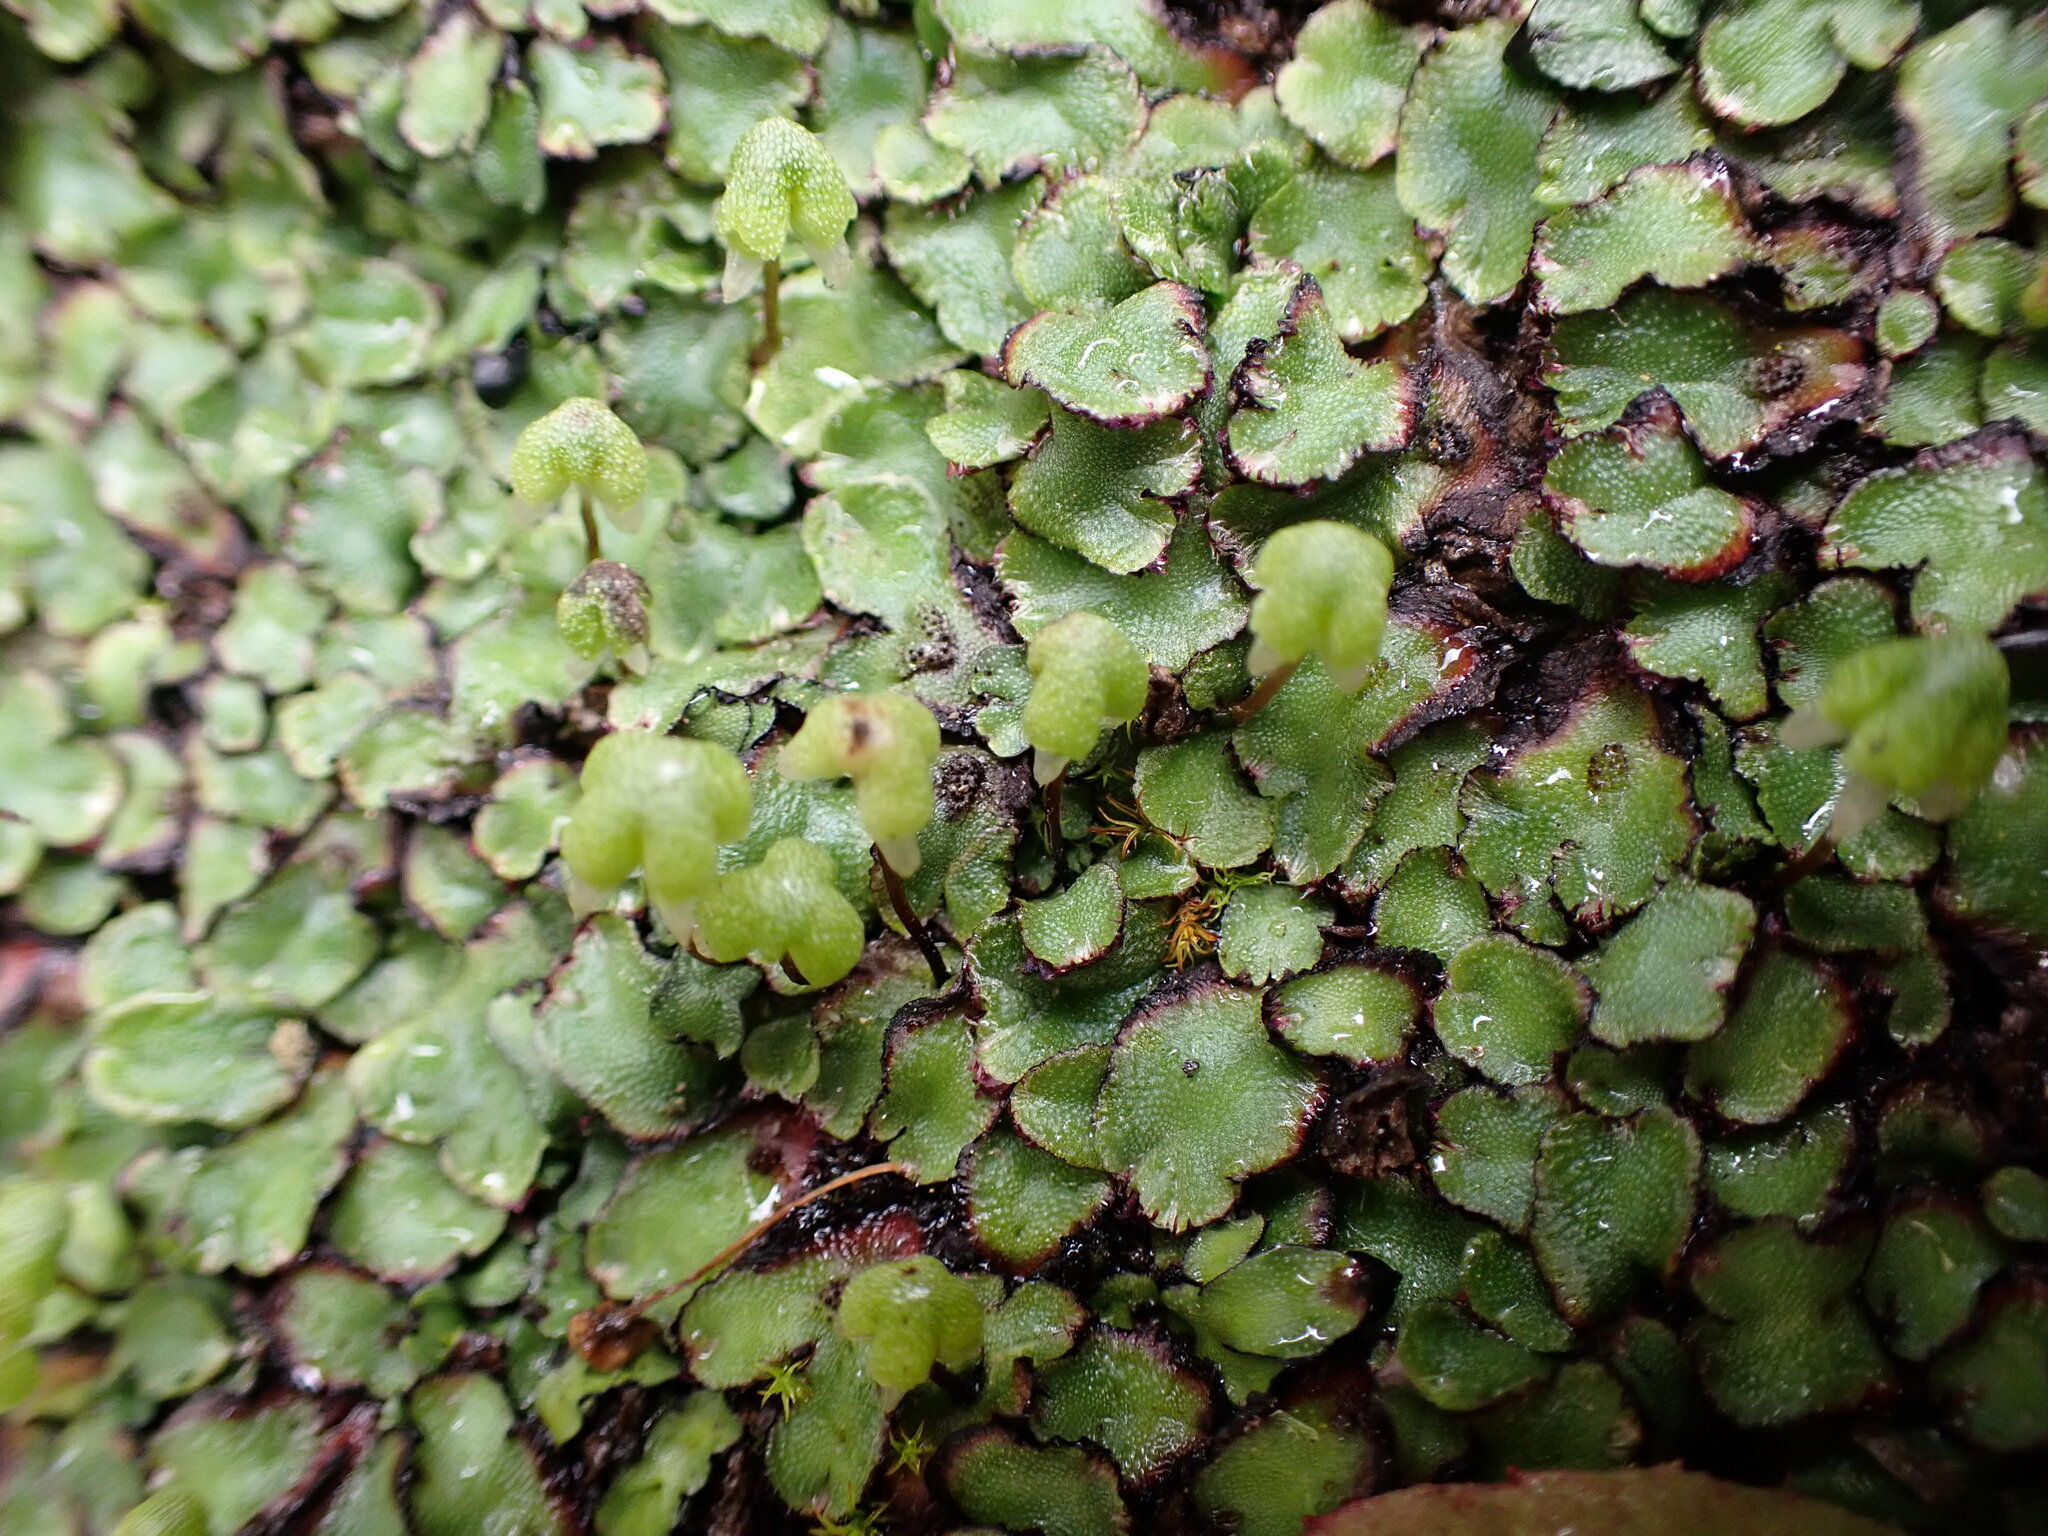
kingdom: Plantae
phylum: Marchantiophyta
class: Marchantiopsida
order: Marchantiales
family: Aytoniaceae
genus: Asterella
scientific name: Asterella californica
